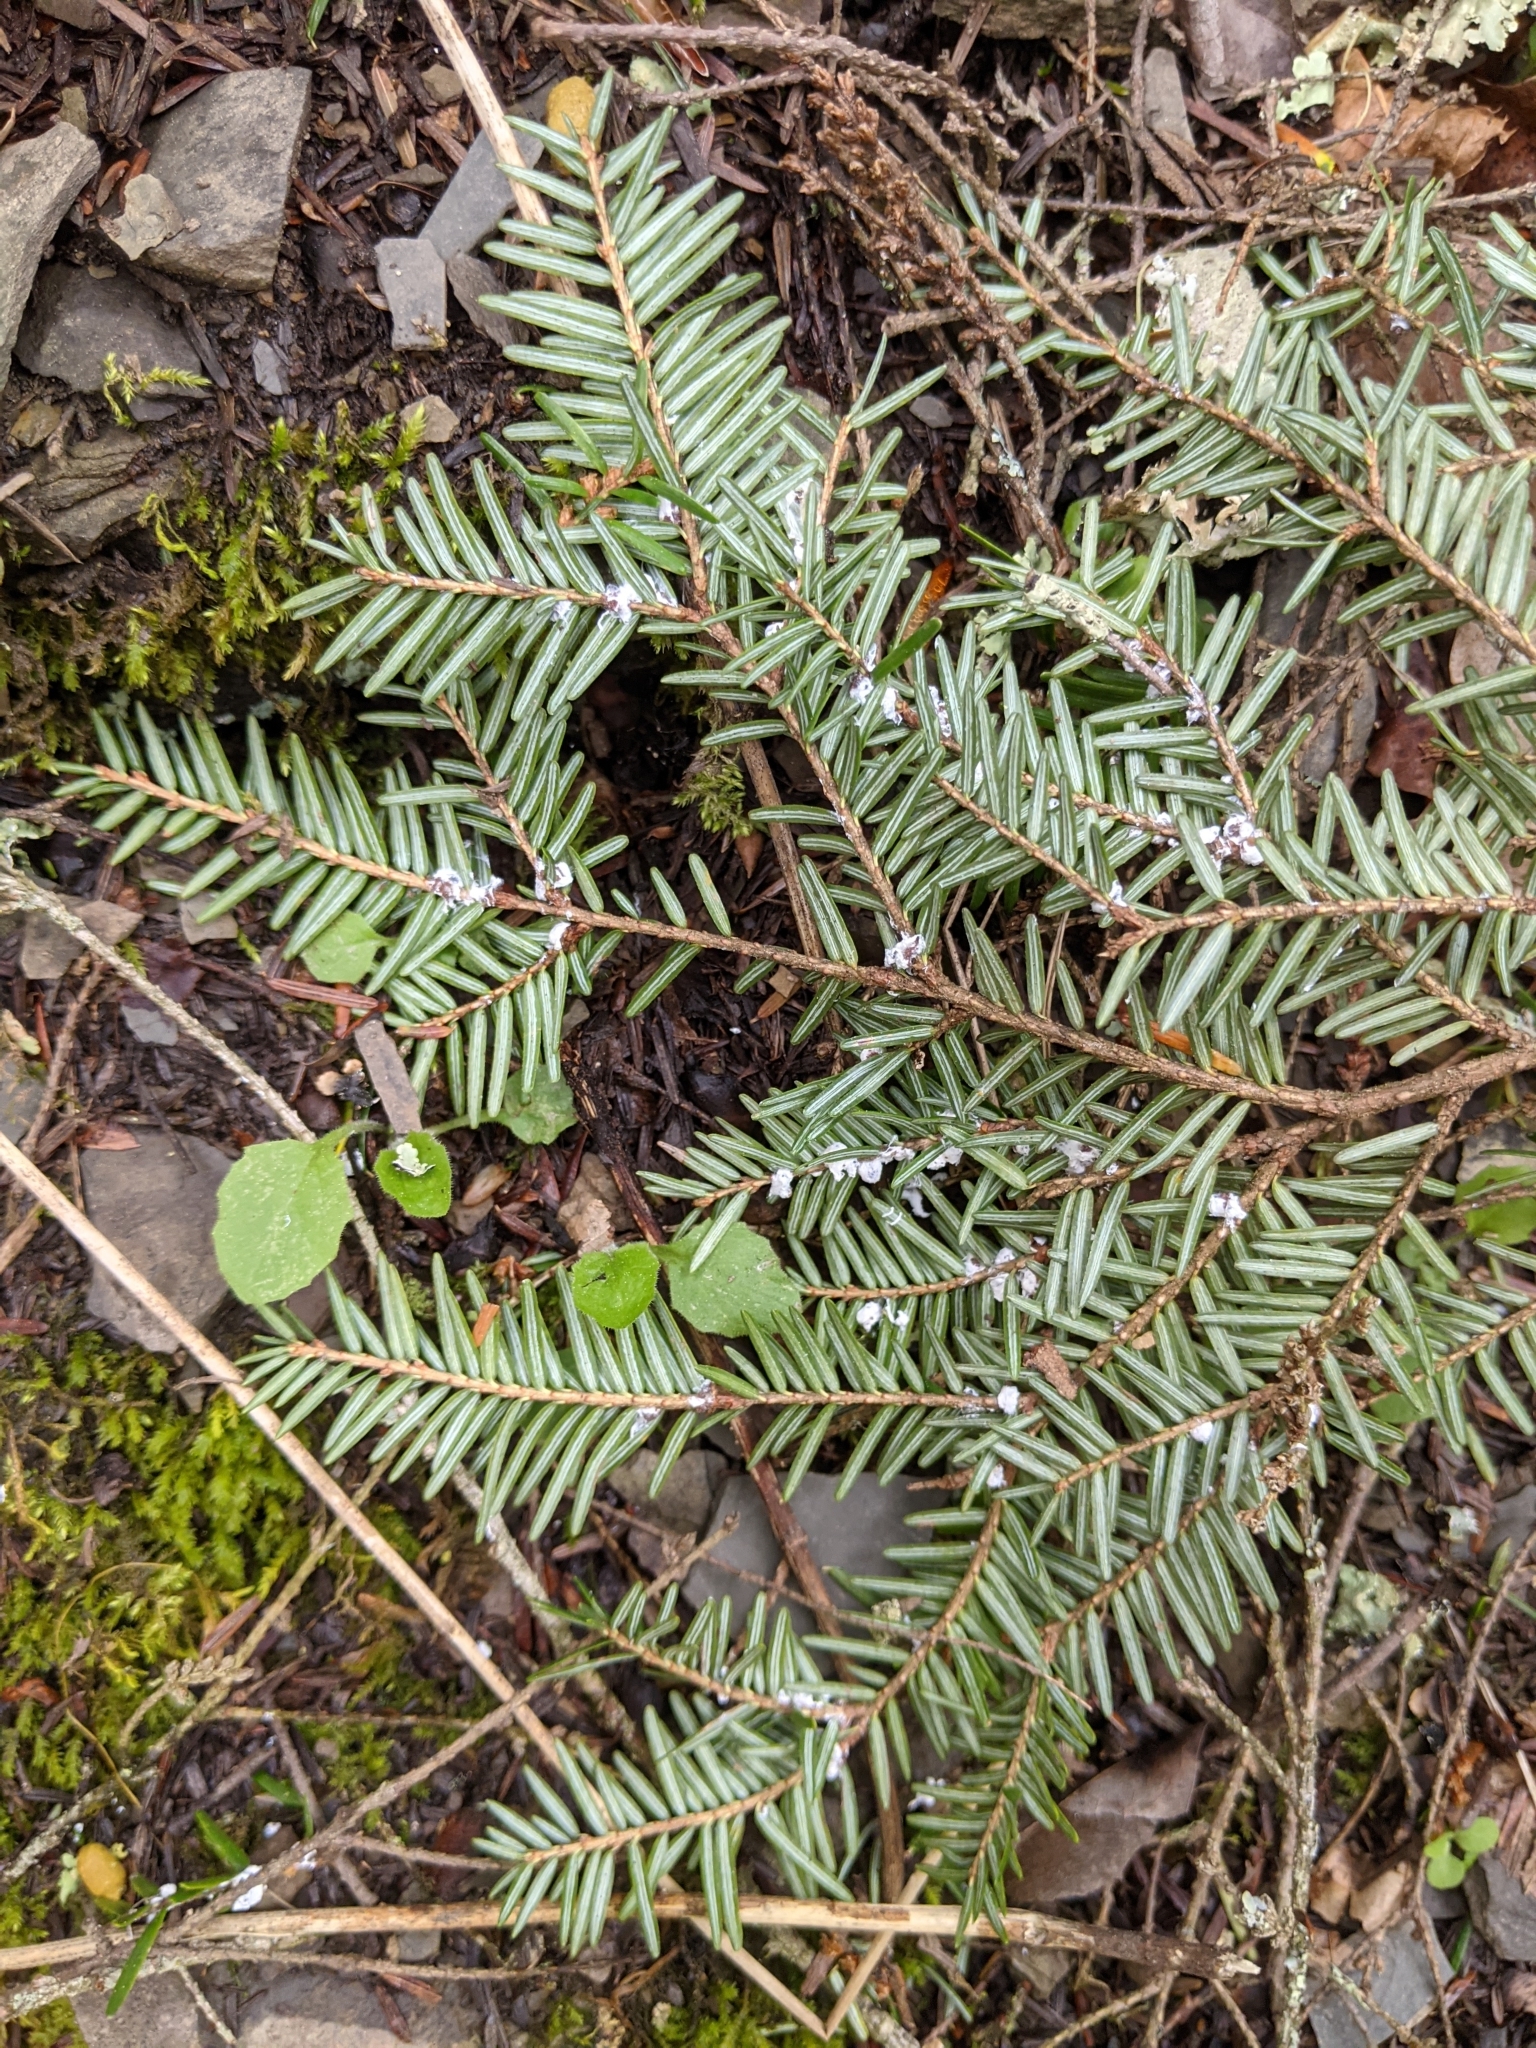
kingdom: Animalia
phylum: Arthropoda
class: Insecta
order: Hemiptera
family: Adelgidae
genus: Adelges
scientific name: Adelges tsugae
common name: Hemlock woolly adelgid
